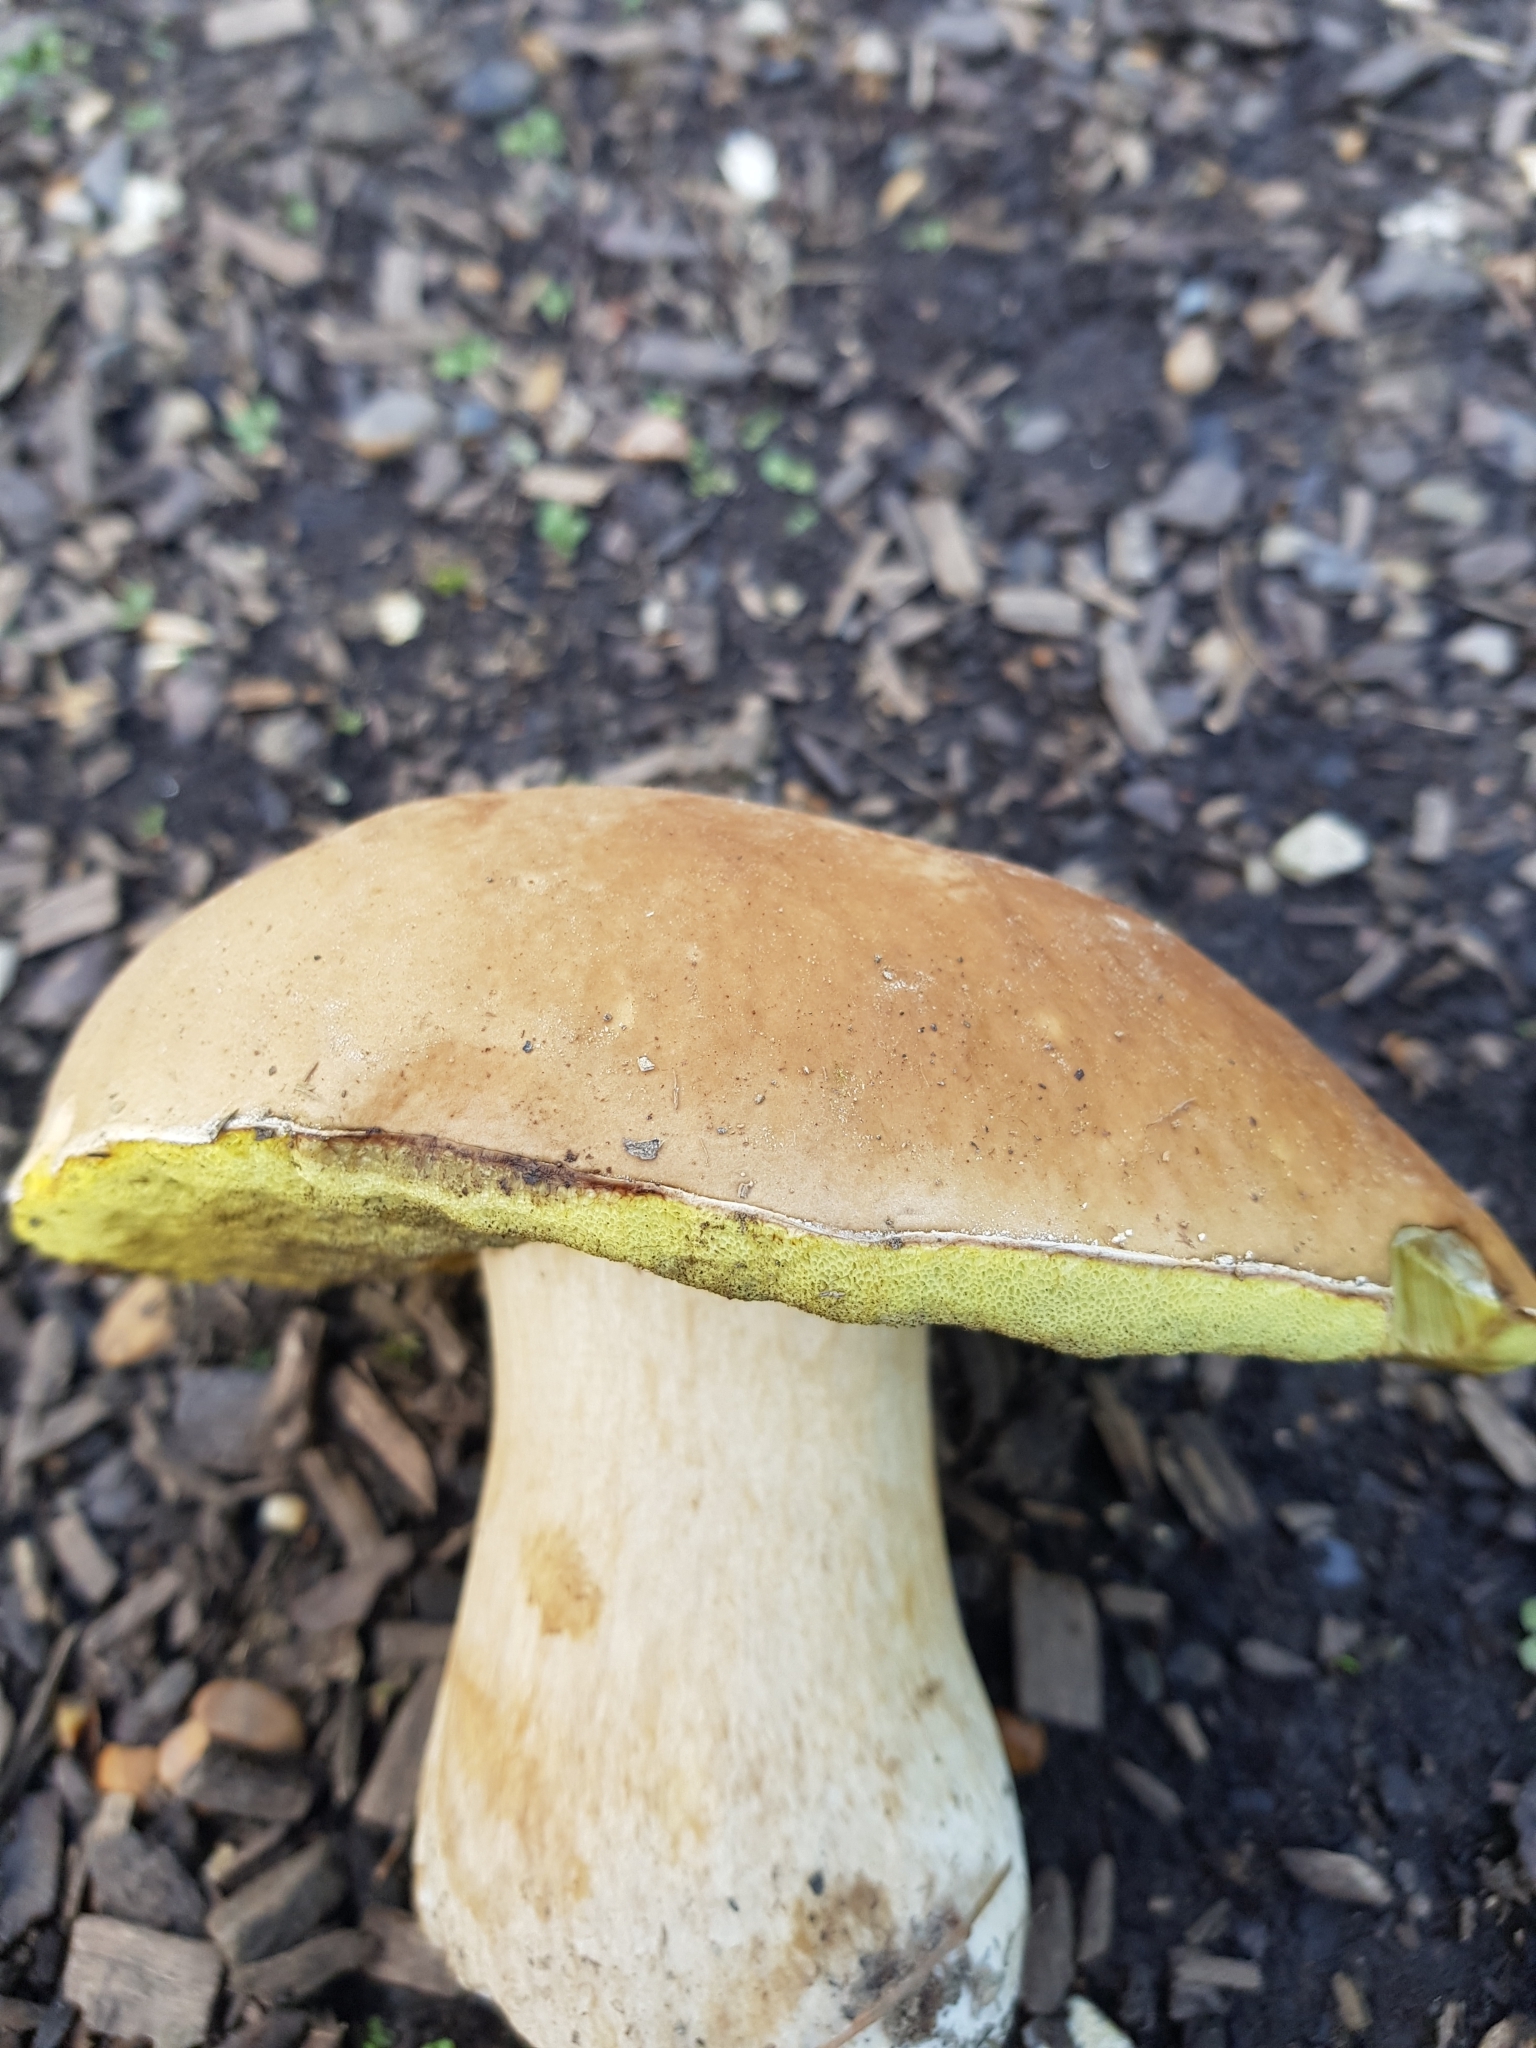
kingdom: Fungi
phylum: Basidiomycota
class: Agaricomycetes
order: Boletales
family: Boletaceae
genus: Boletus
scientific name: Boletus edulis
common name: Cep
